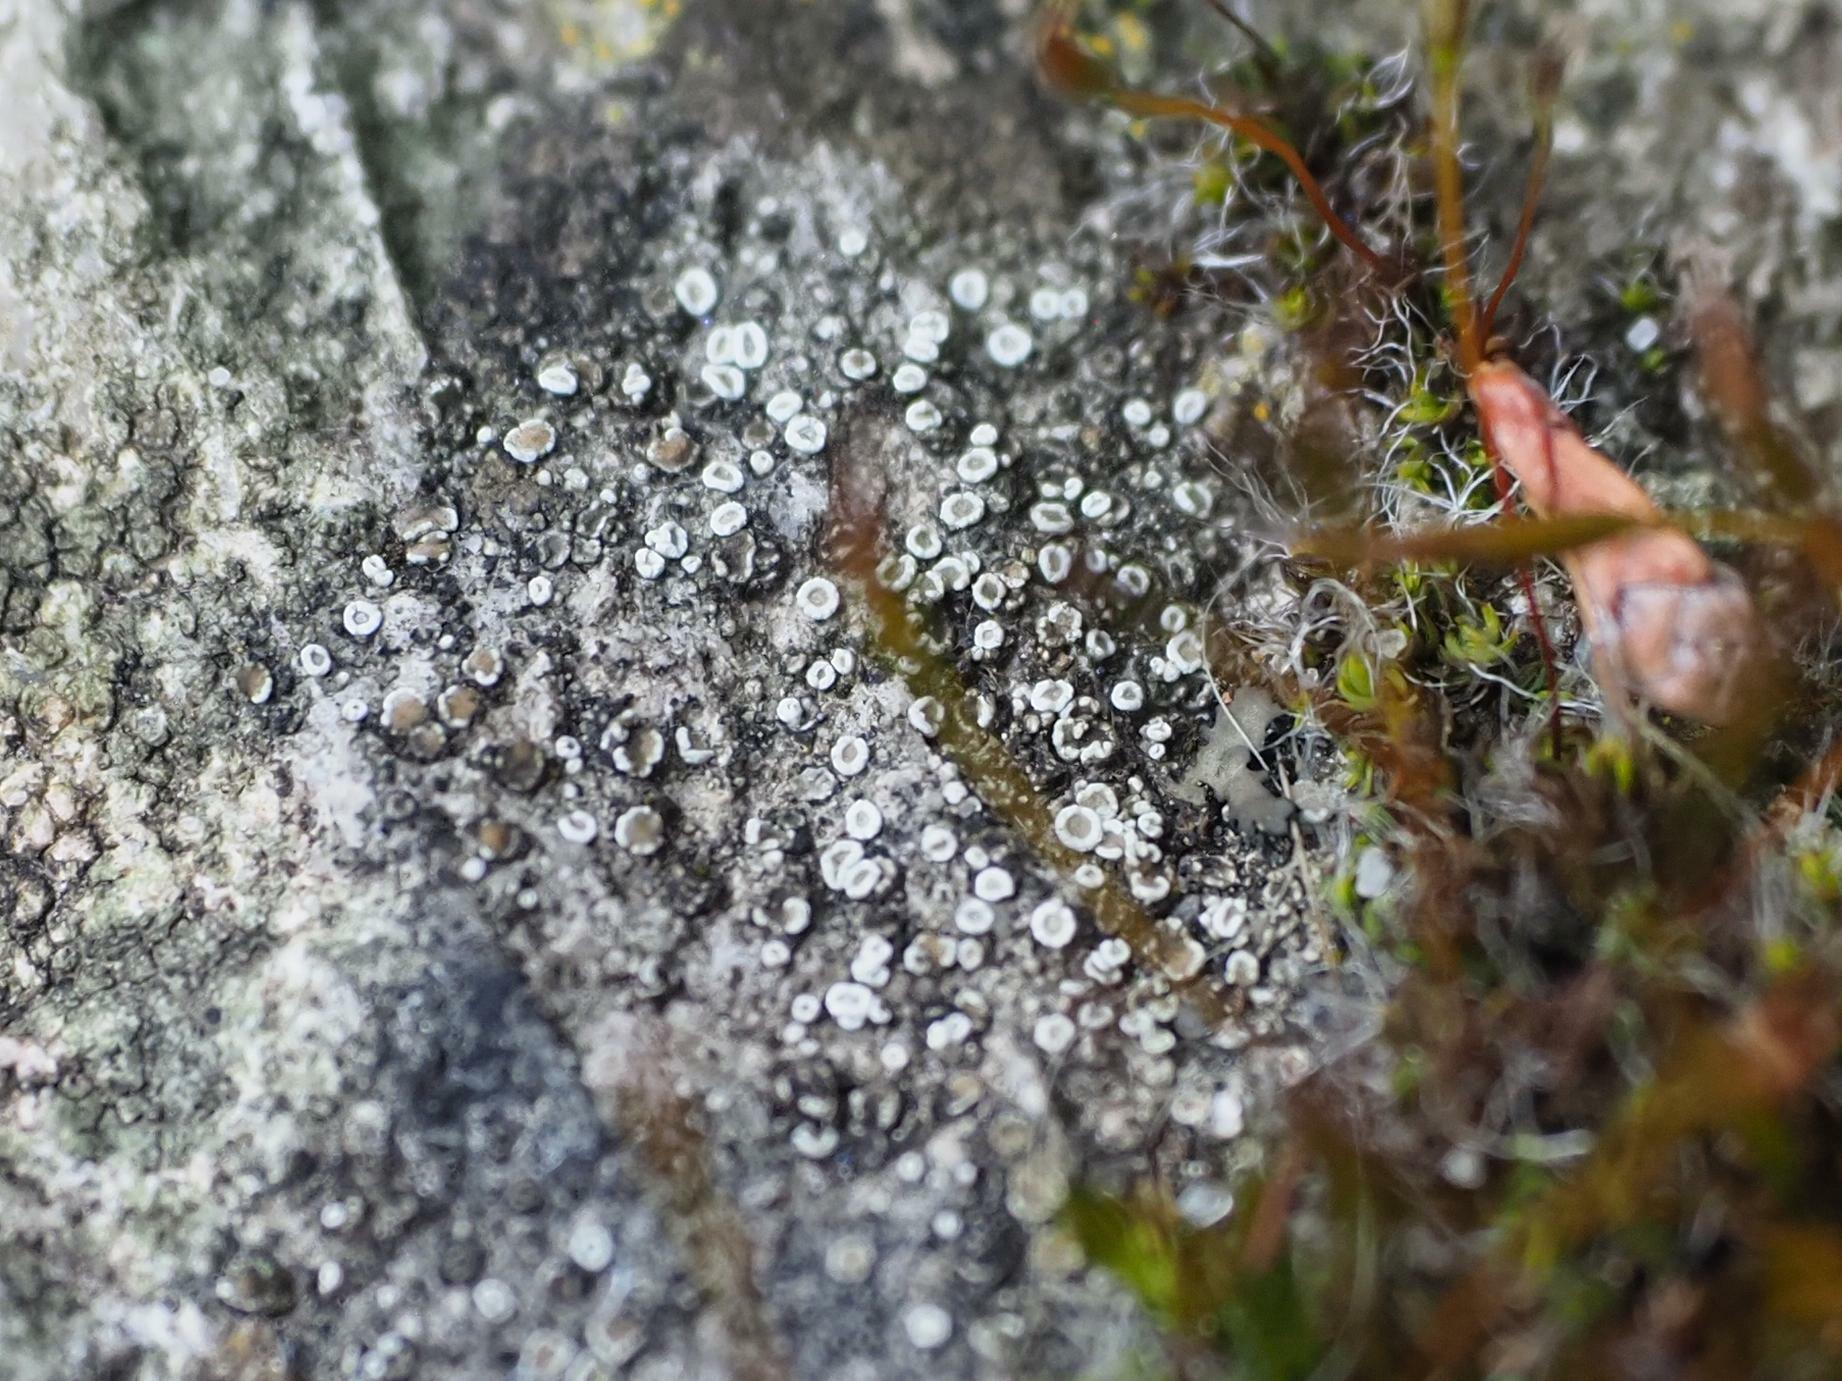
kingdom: Fungi
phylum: Ascomycota
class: Lecanoromycetes
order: Lecanorales
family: Lecanoraceae
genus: Polyozosia
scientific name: Polyozosia dispersa
